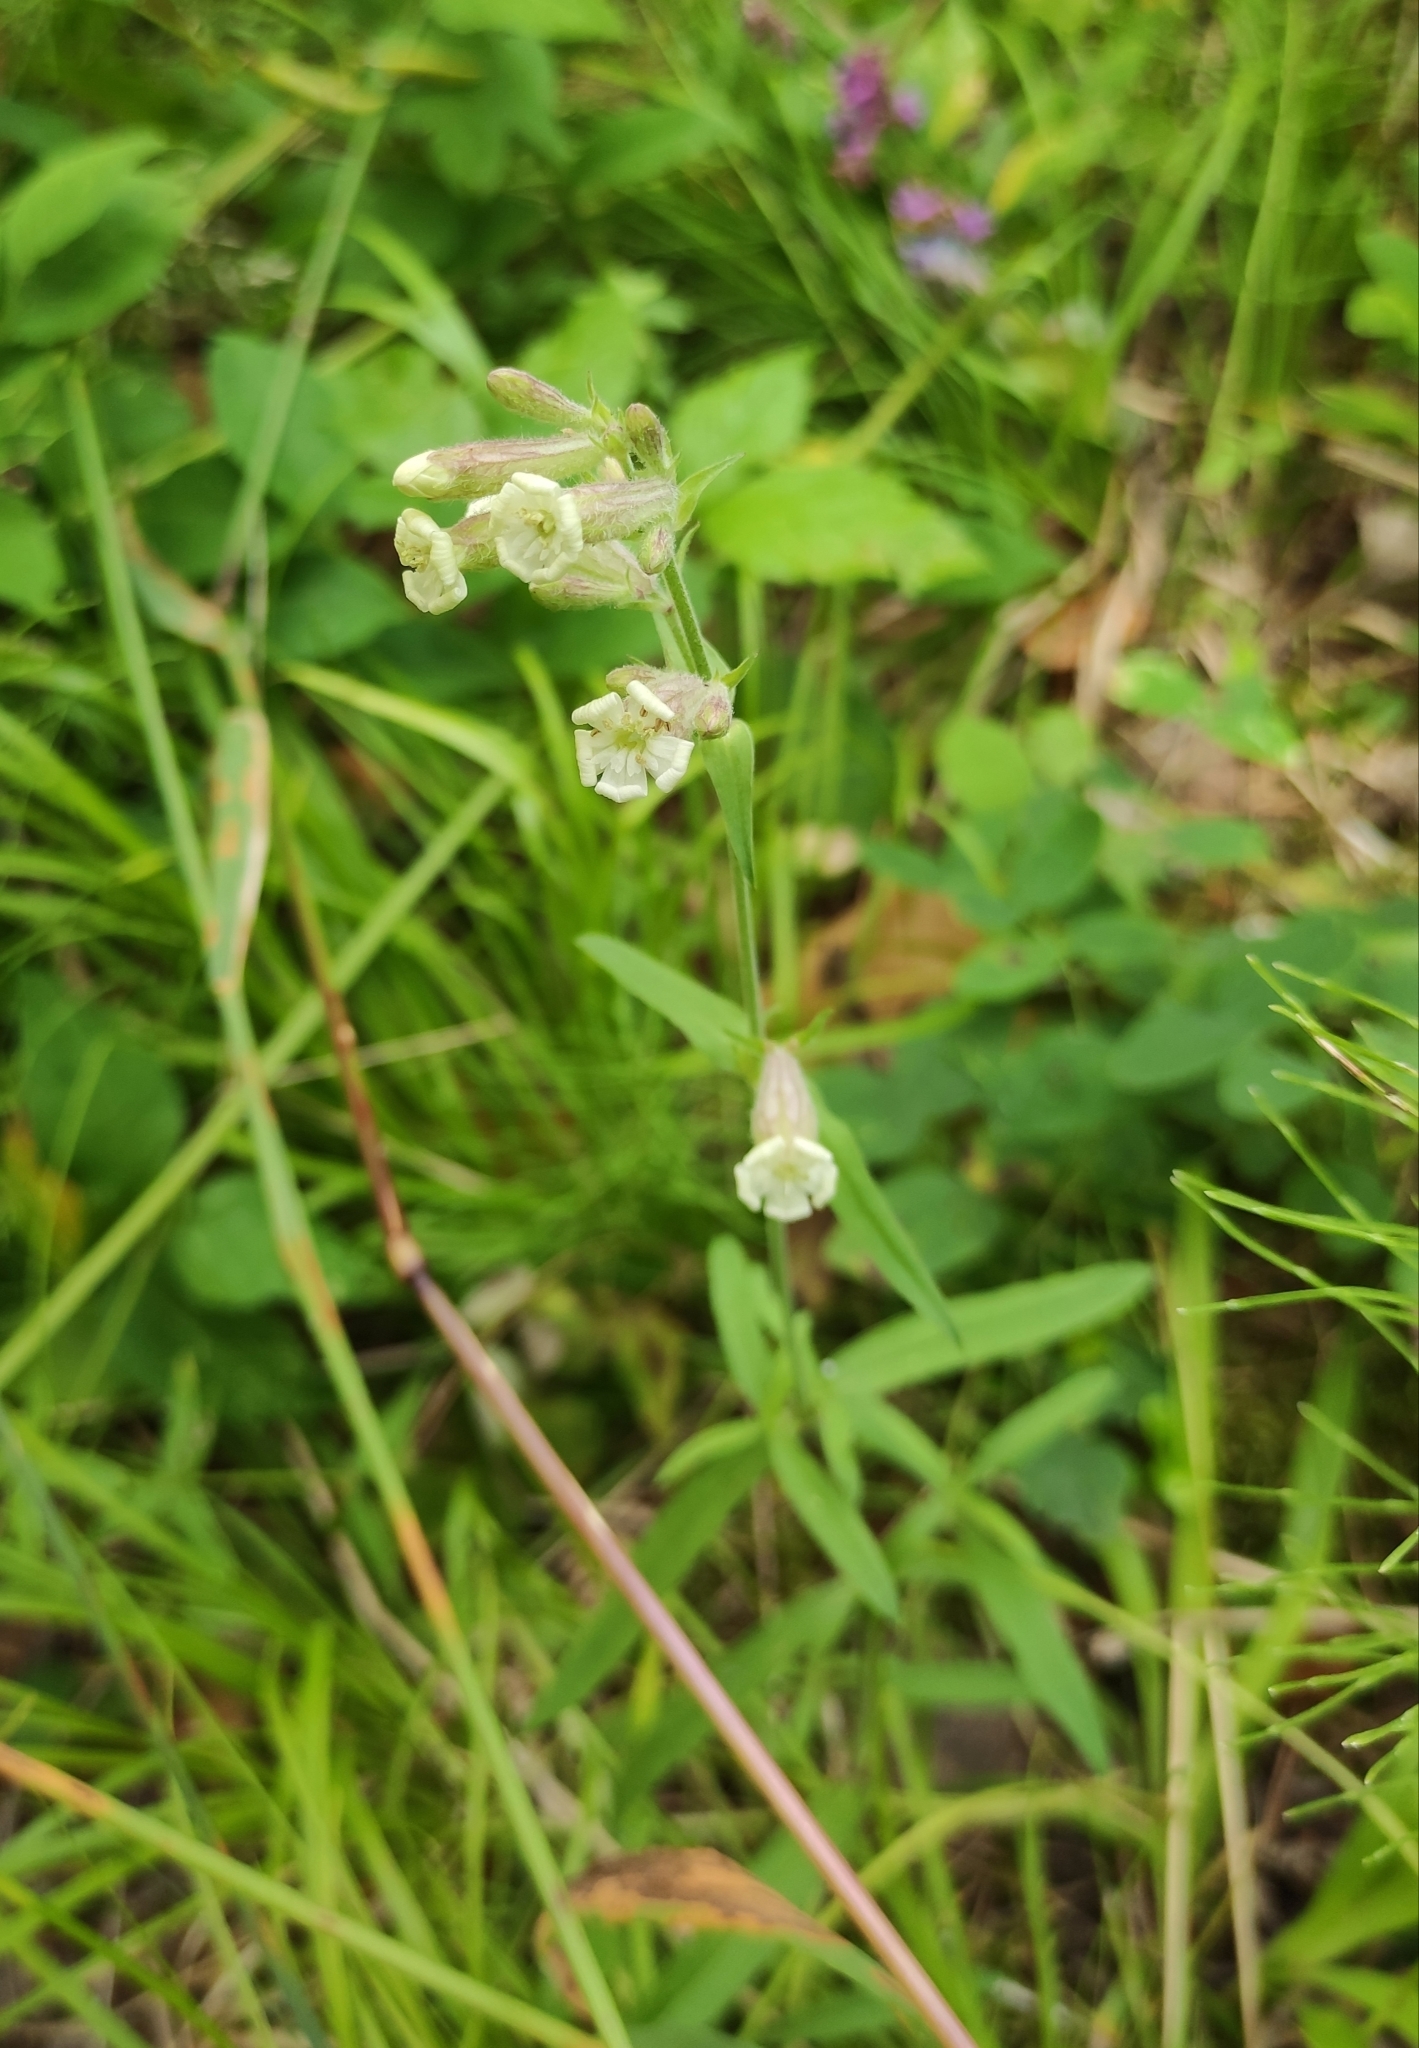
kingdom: Plantae
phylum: Tracheophyta
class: Magnoliopsida
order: Caryophyllales
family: Caryophyllaceae
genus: Silene
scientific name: Silene amoena
